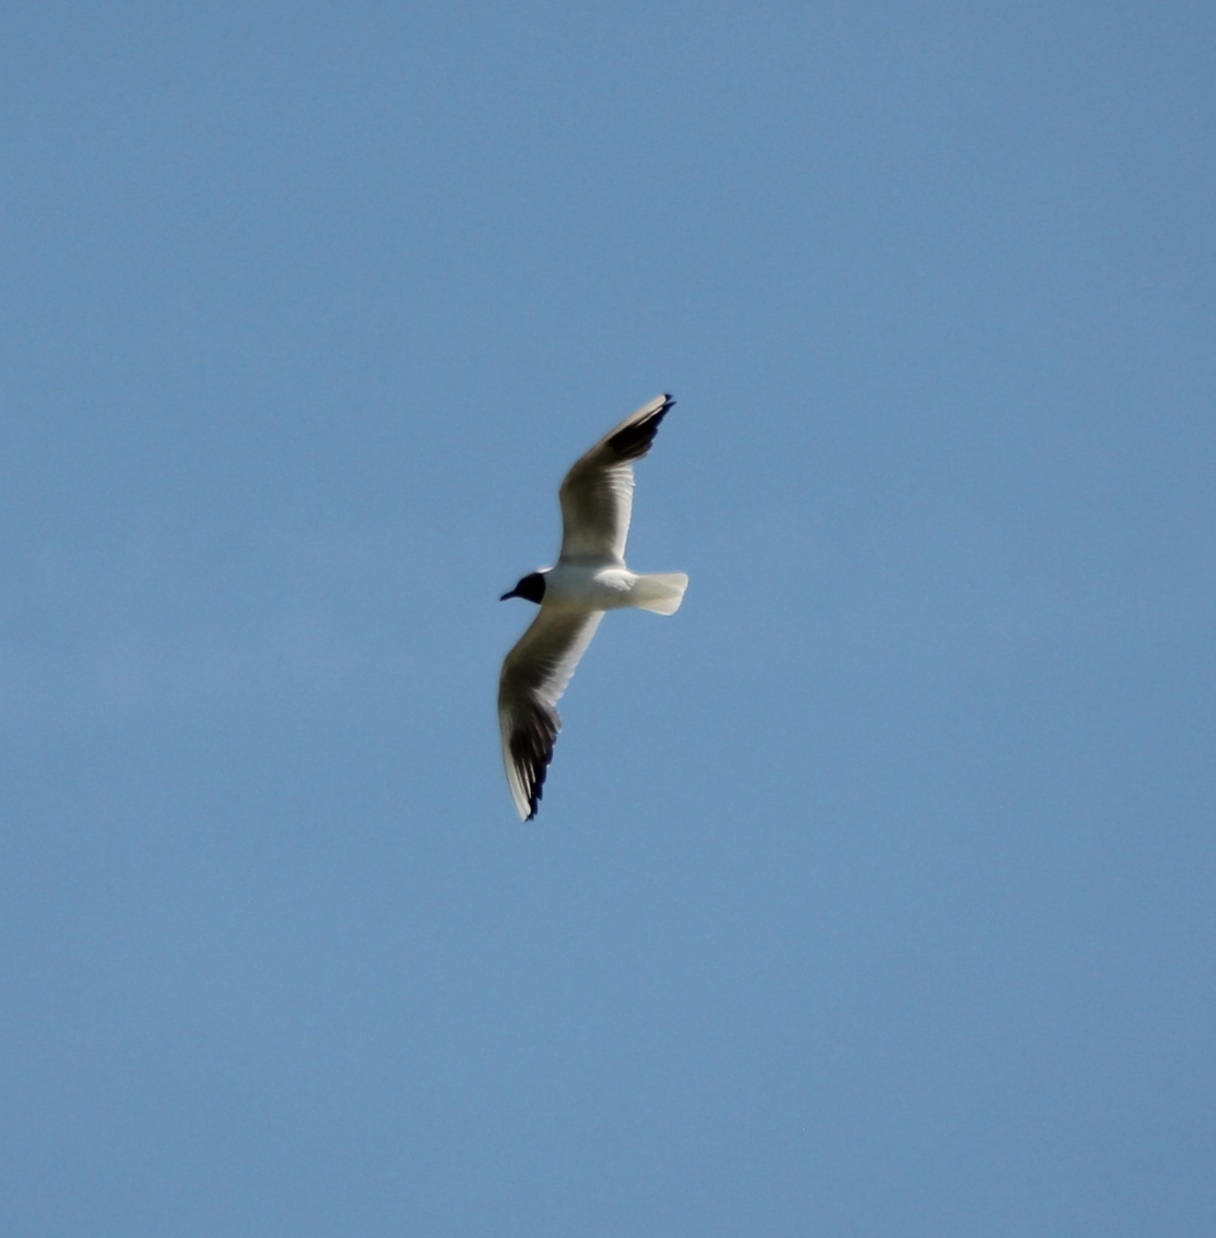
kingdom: Animalia
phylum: Chordata
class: Aves
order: Charadriiformes
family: Laridae
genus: Chroicocephalus
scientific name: Chroicocephalus ridibundus
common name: Black-headed gull
